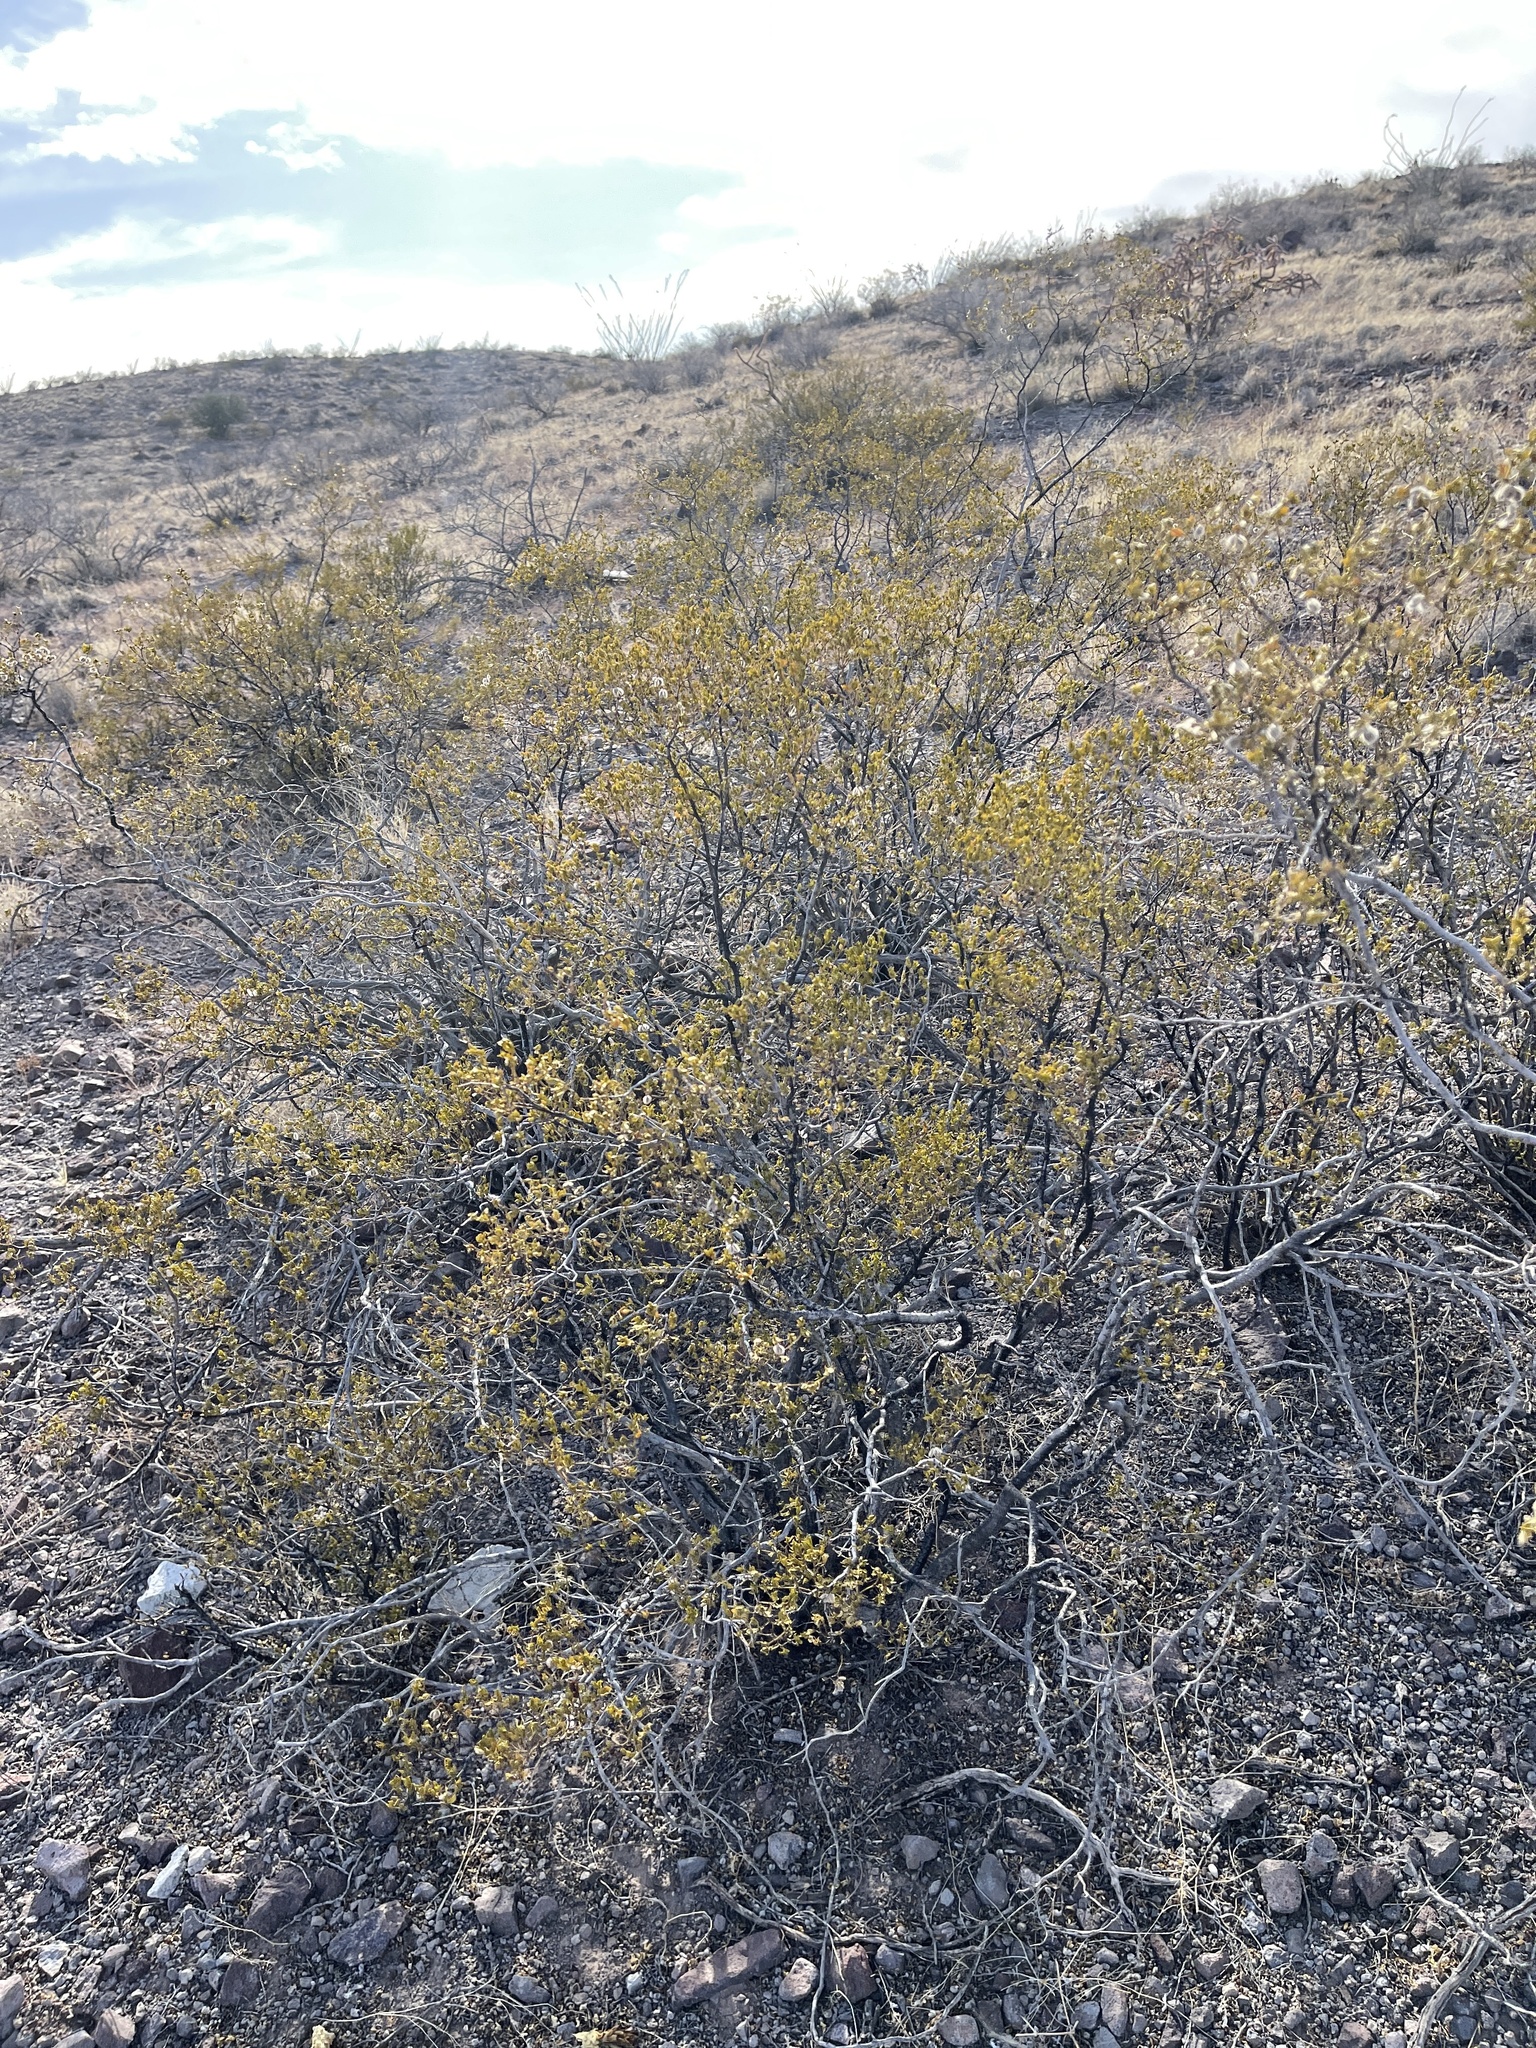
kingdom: Plantae
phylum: Tracheophyta
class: Magnoliopsida
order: Zygophyllales
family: Zygophyllaceae
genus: Larrea
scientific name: Larrea tridentata
